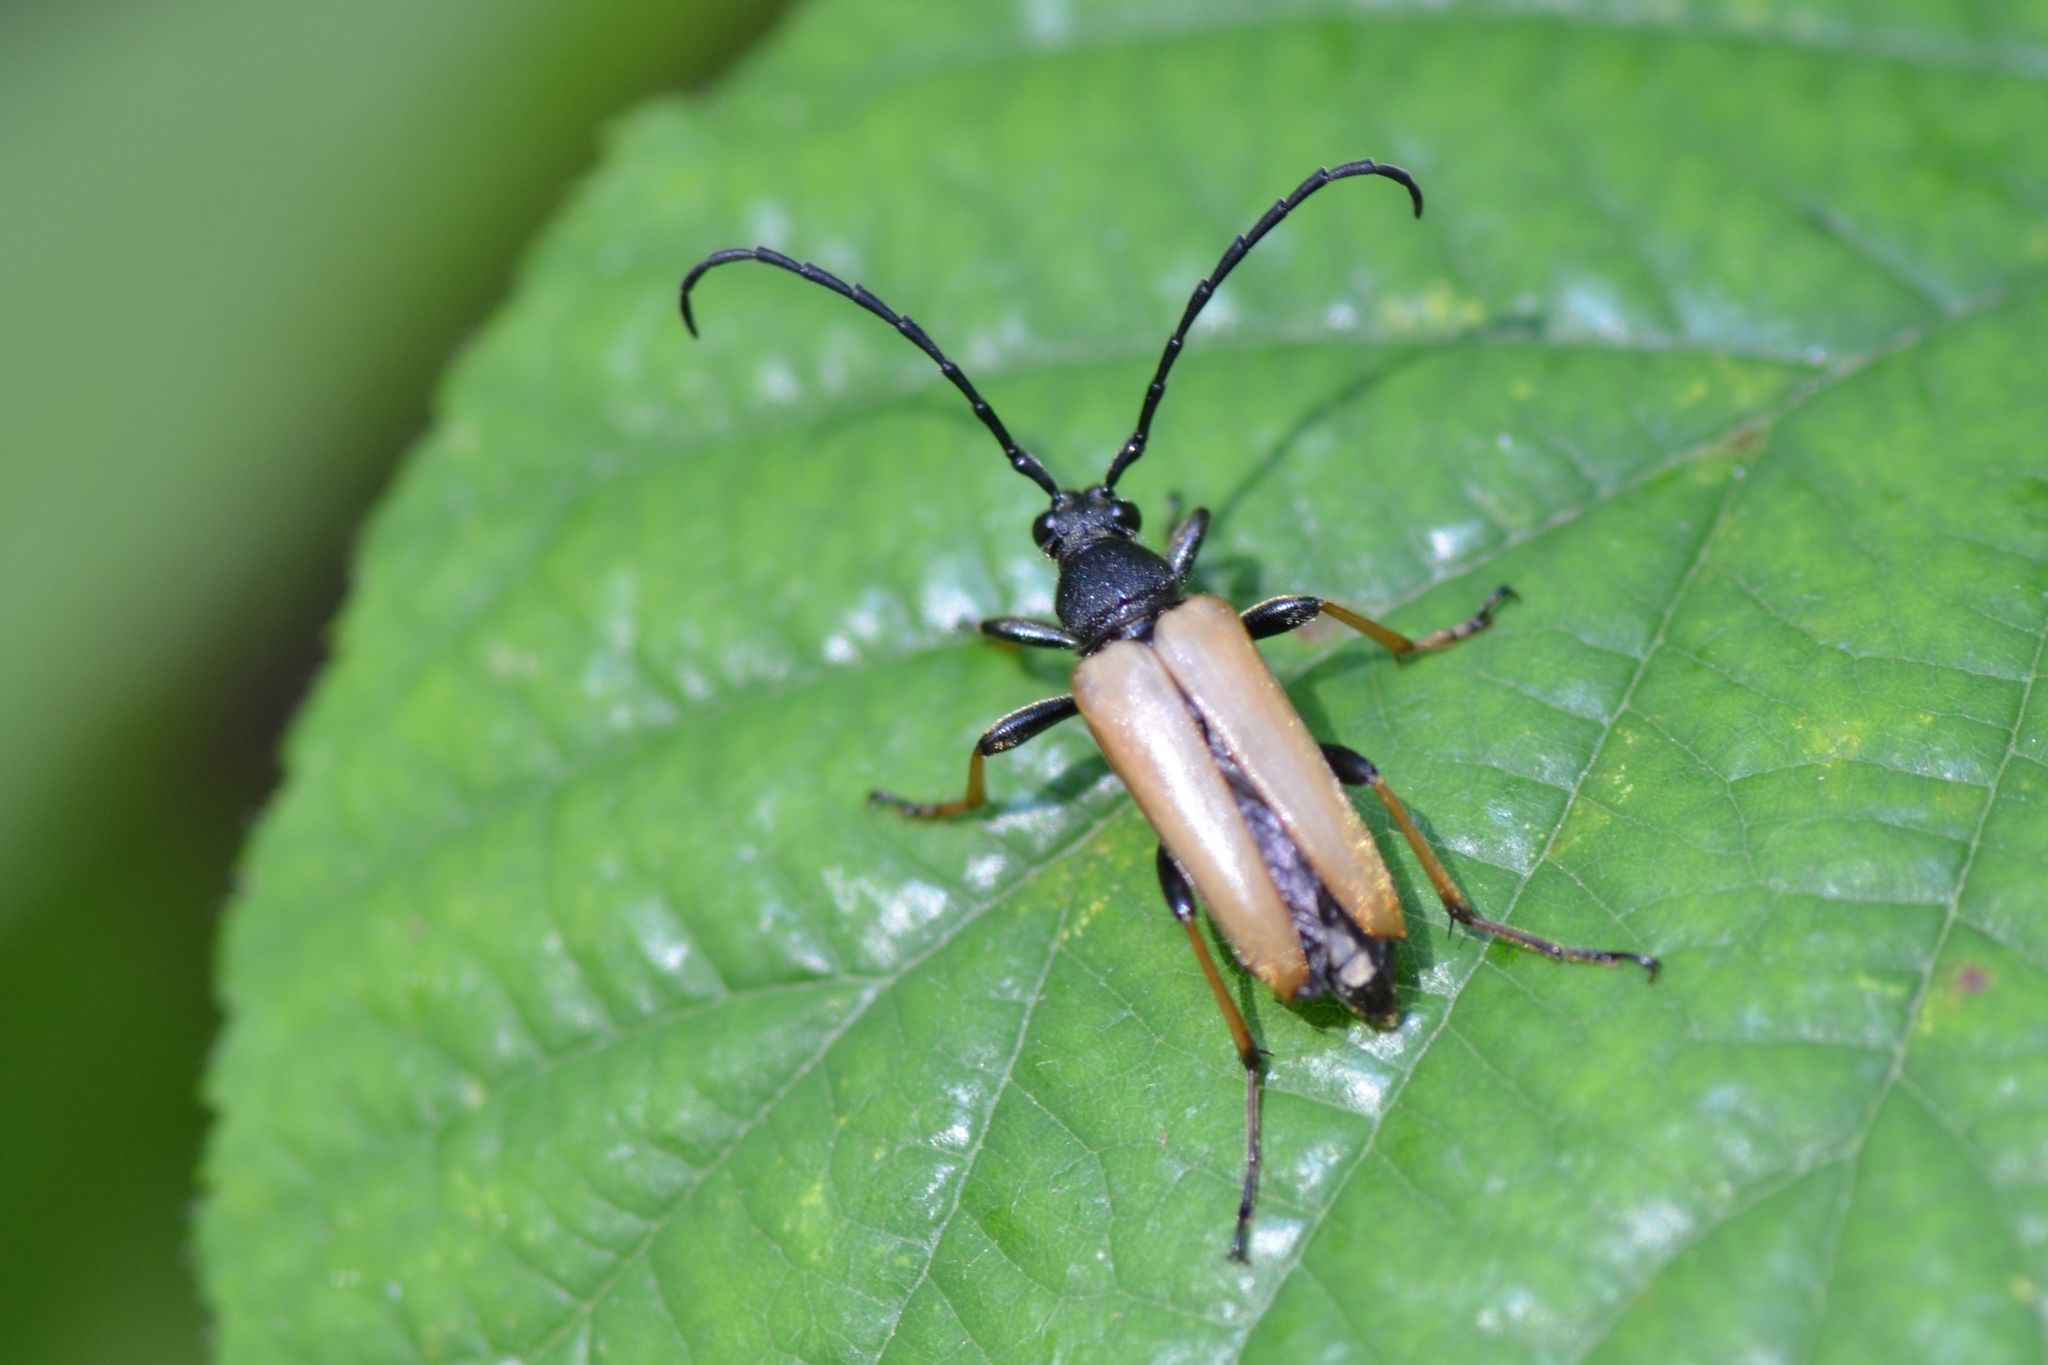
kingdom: Animalia
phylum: Arthropoda
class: Insecta
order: Coleoptera
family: Cerambycidae
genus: Stictoleptura
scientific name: Stictoleptura rubra
